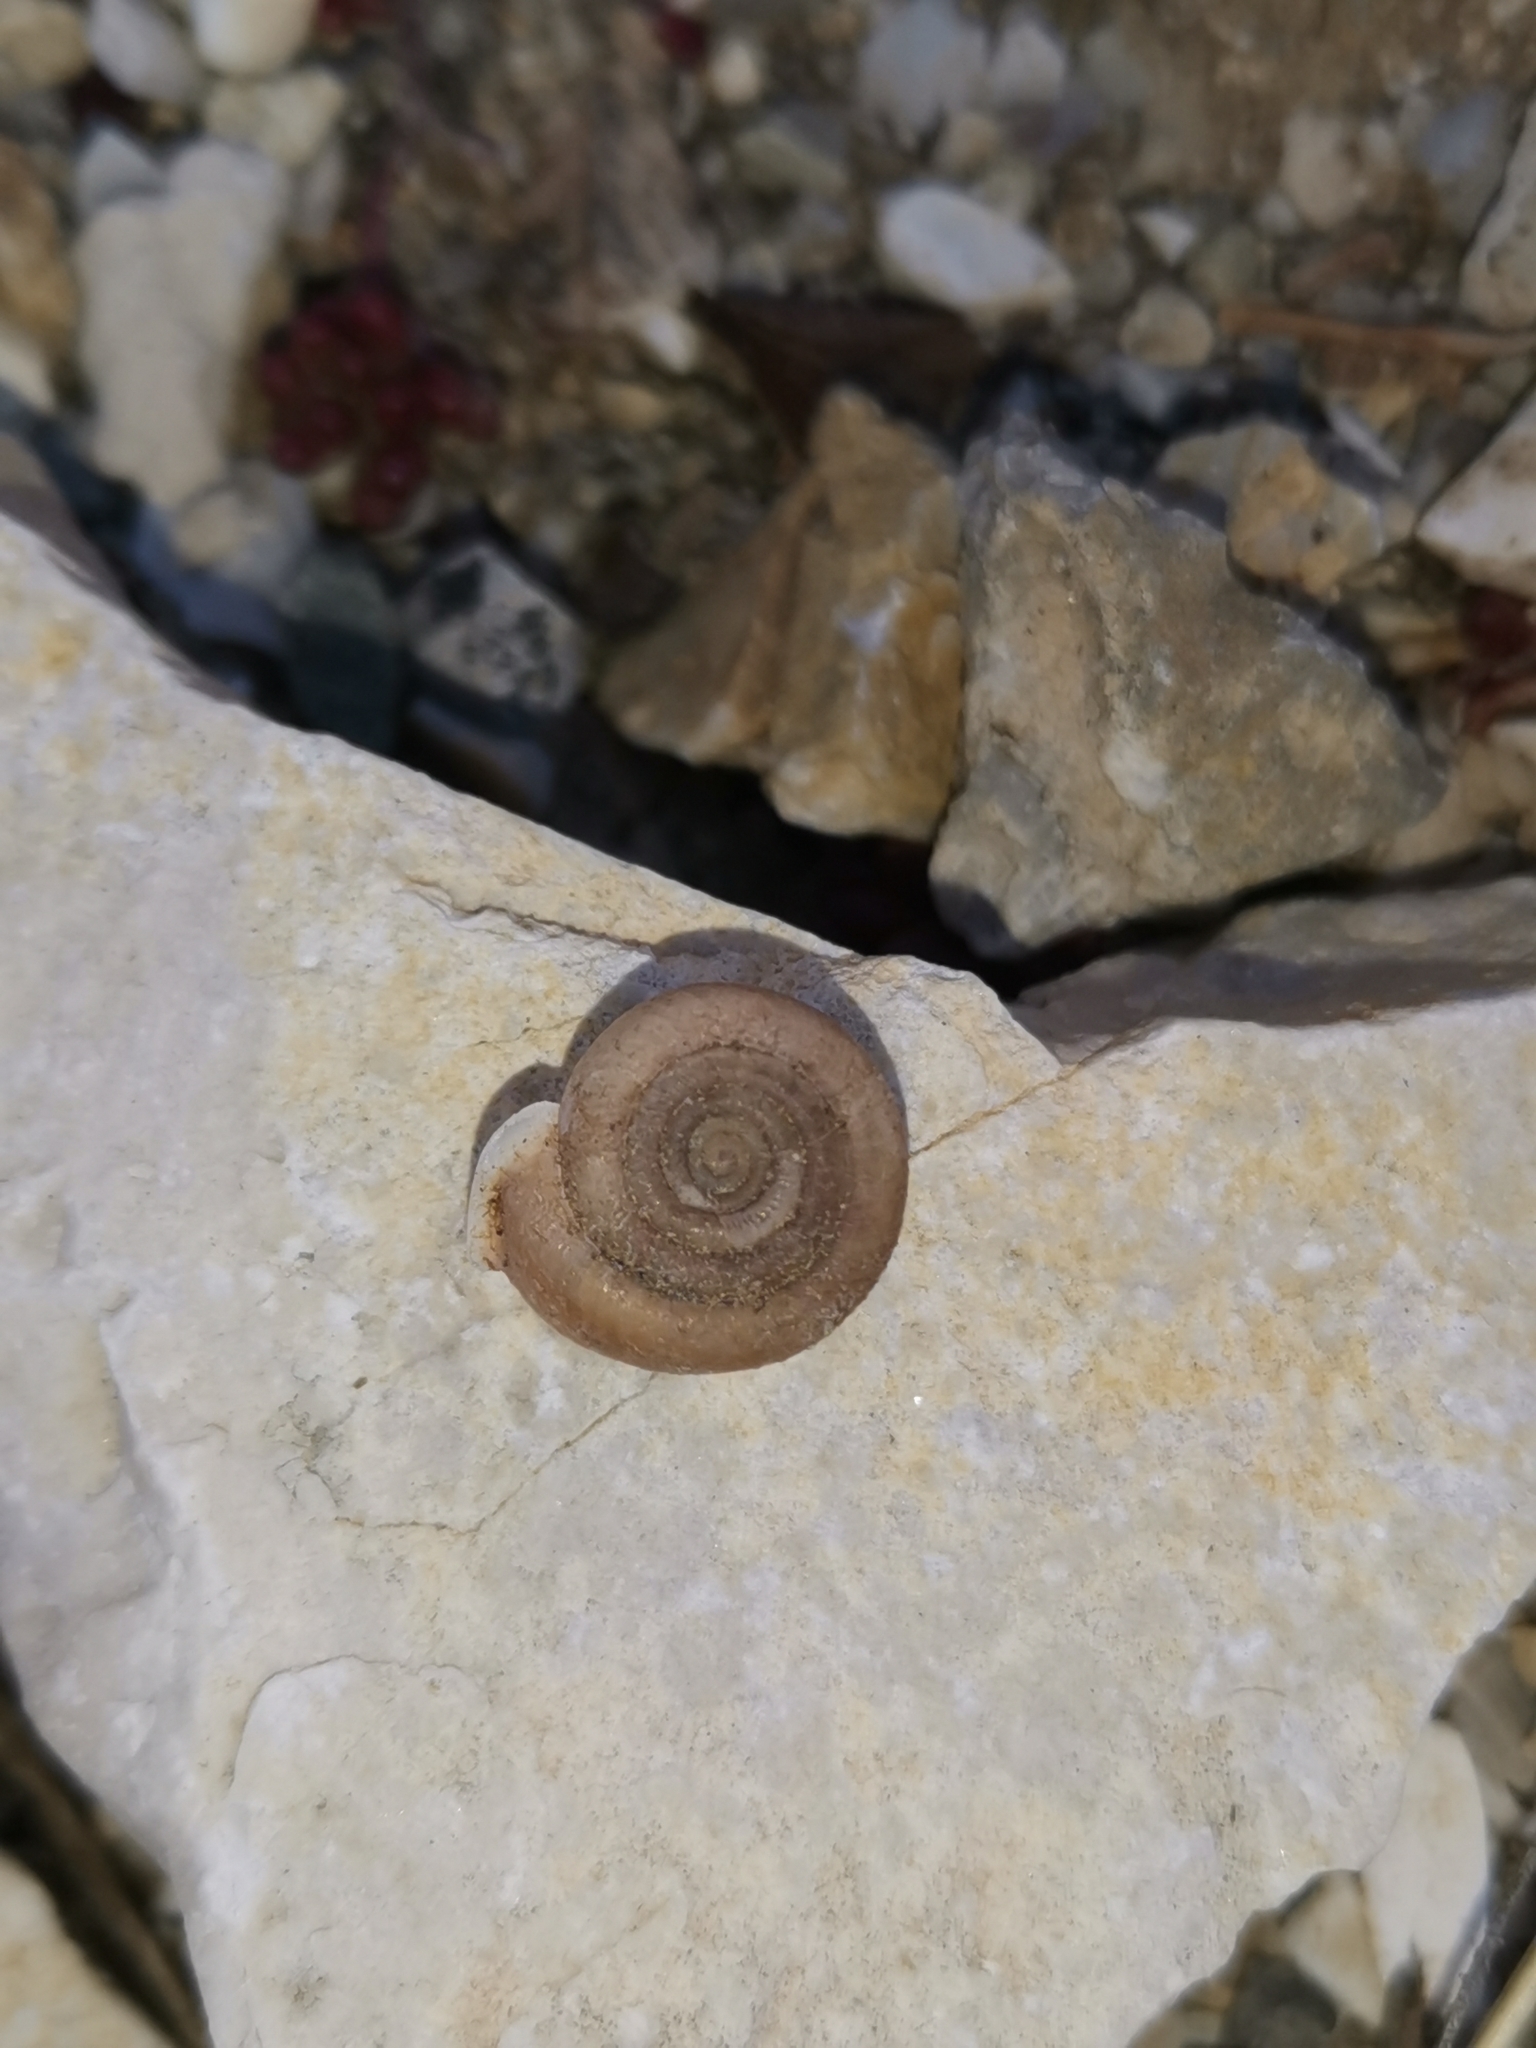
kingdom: Animalia
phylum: Mollusca
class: Gastropoda
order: Stylommatophora
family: Helicodontidae
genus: Helicodonta
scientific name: Helicodonta obvoluta
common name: Cheese snail
